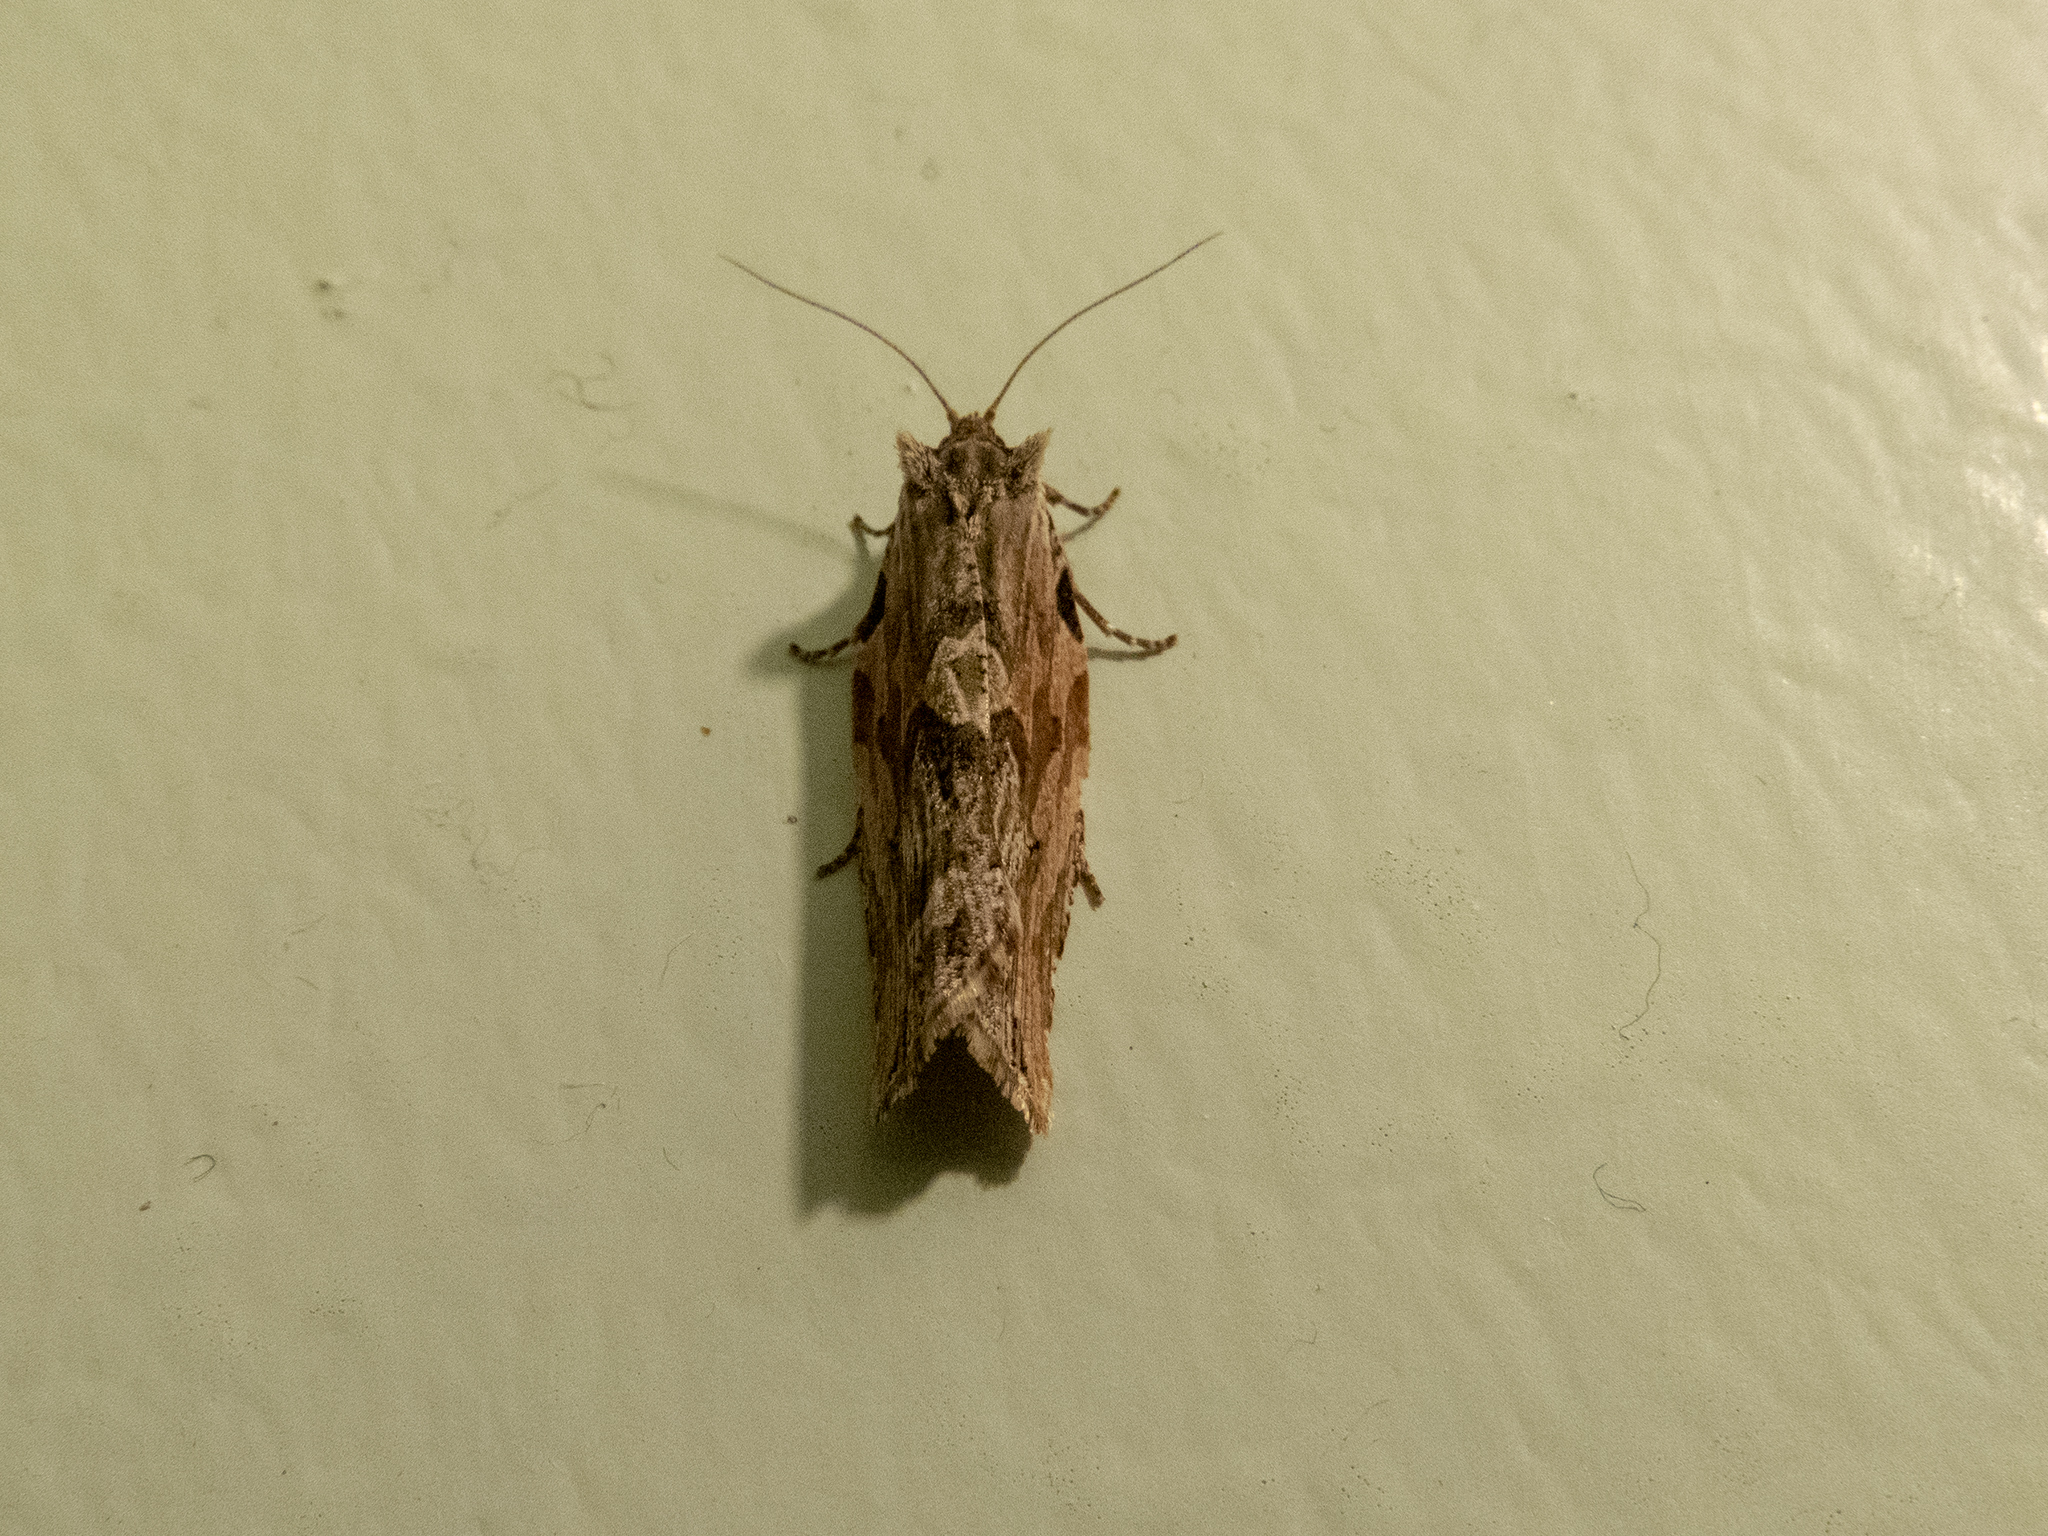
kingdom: Animalia
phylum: Arthropoda
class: Insecta
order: Lepidoptera
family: Tortricidae
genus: Epalxiphora
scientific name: Epalxiphora axenana
